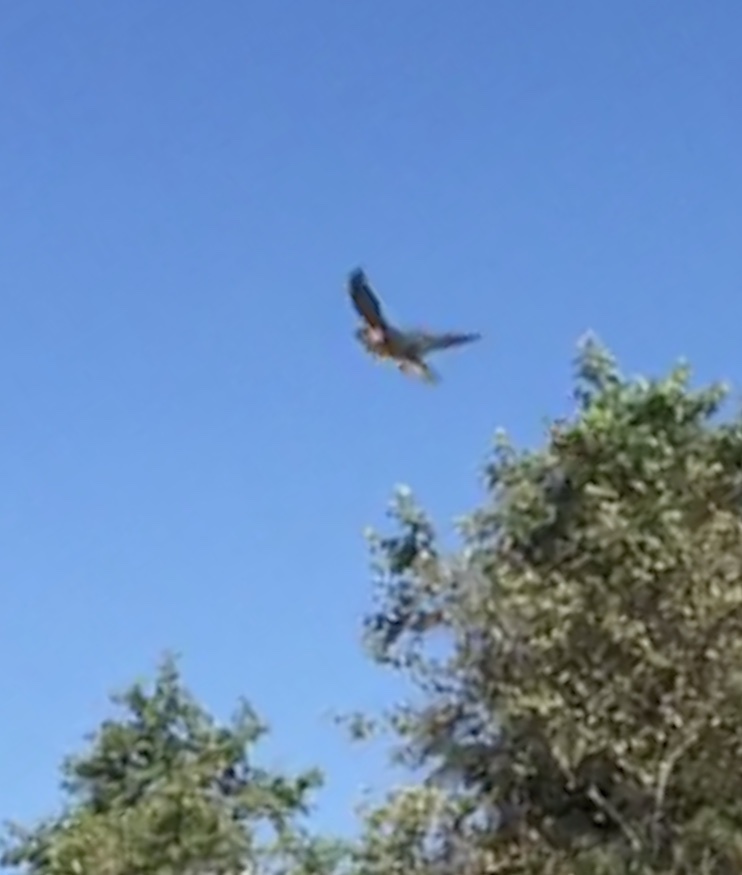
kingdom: Animalia
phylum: Chordata
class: Aves
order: Passeriformes
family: Hirundinidae
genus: Tachycineta
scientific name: Tachycineta thalassina
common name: Violet-green swallow
